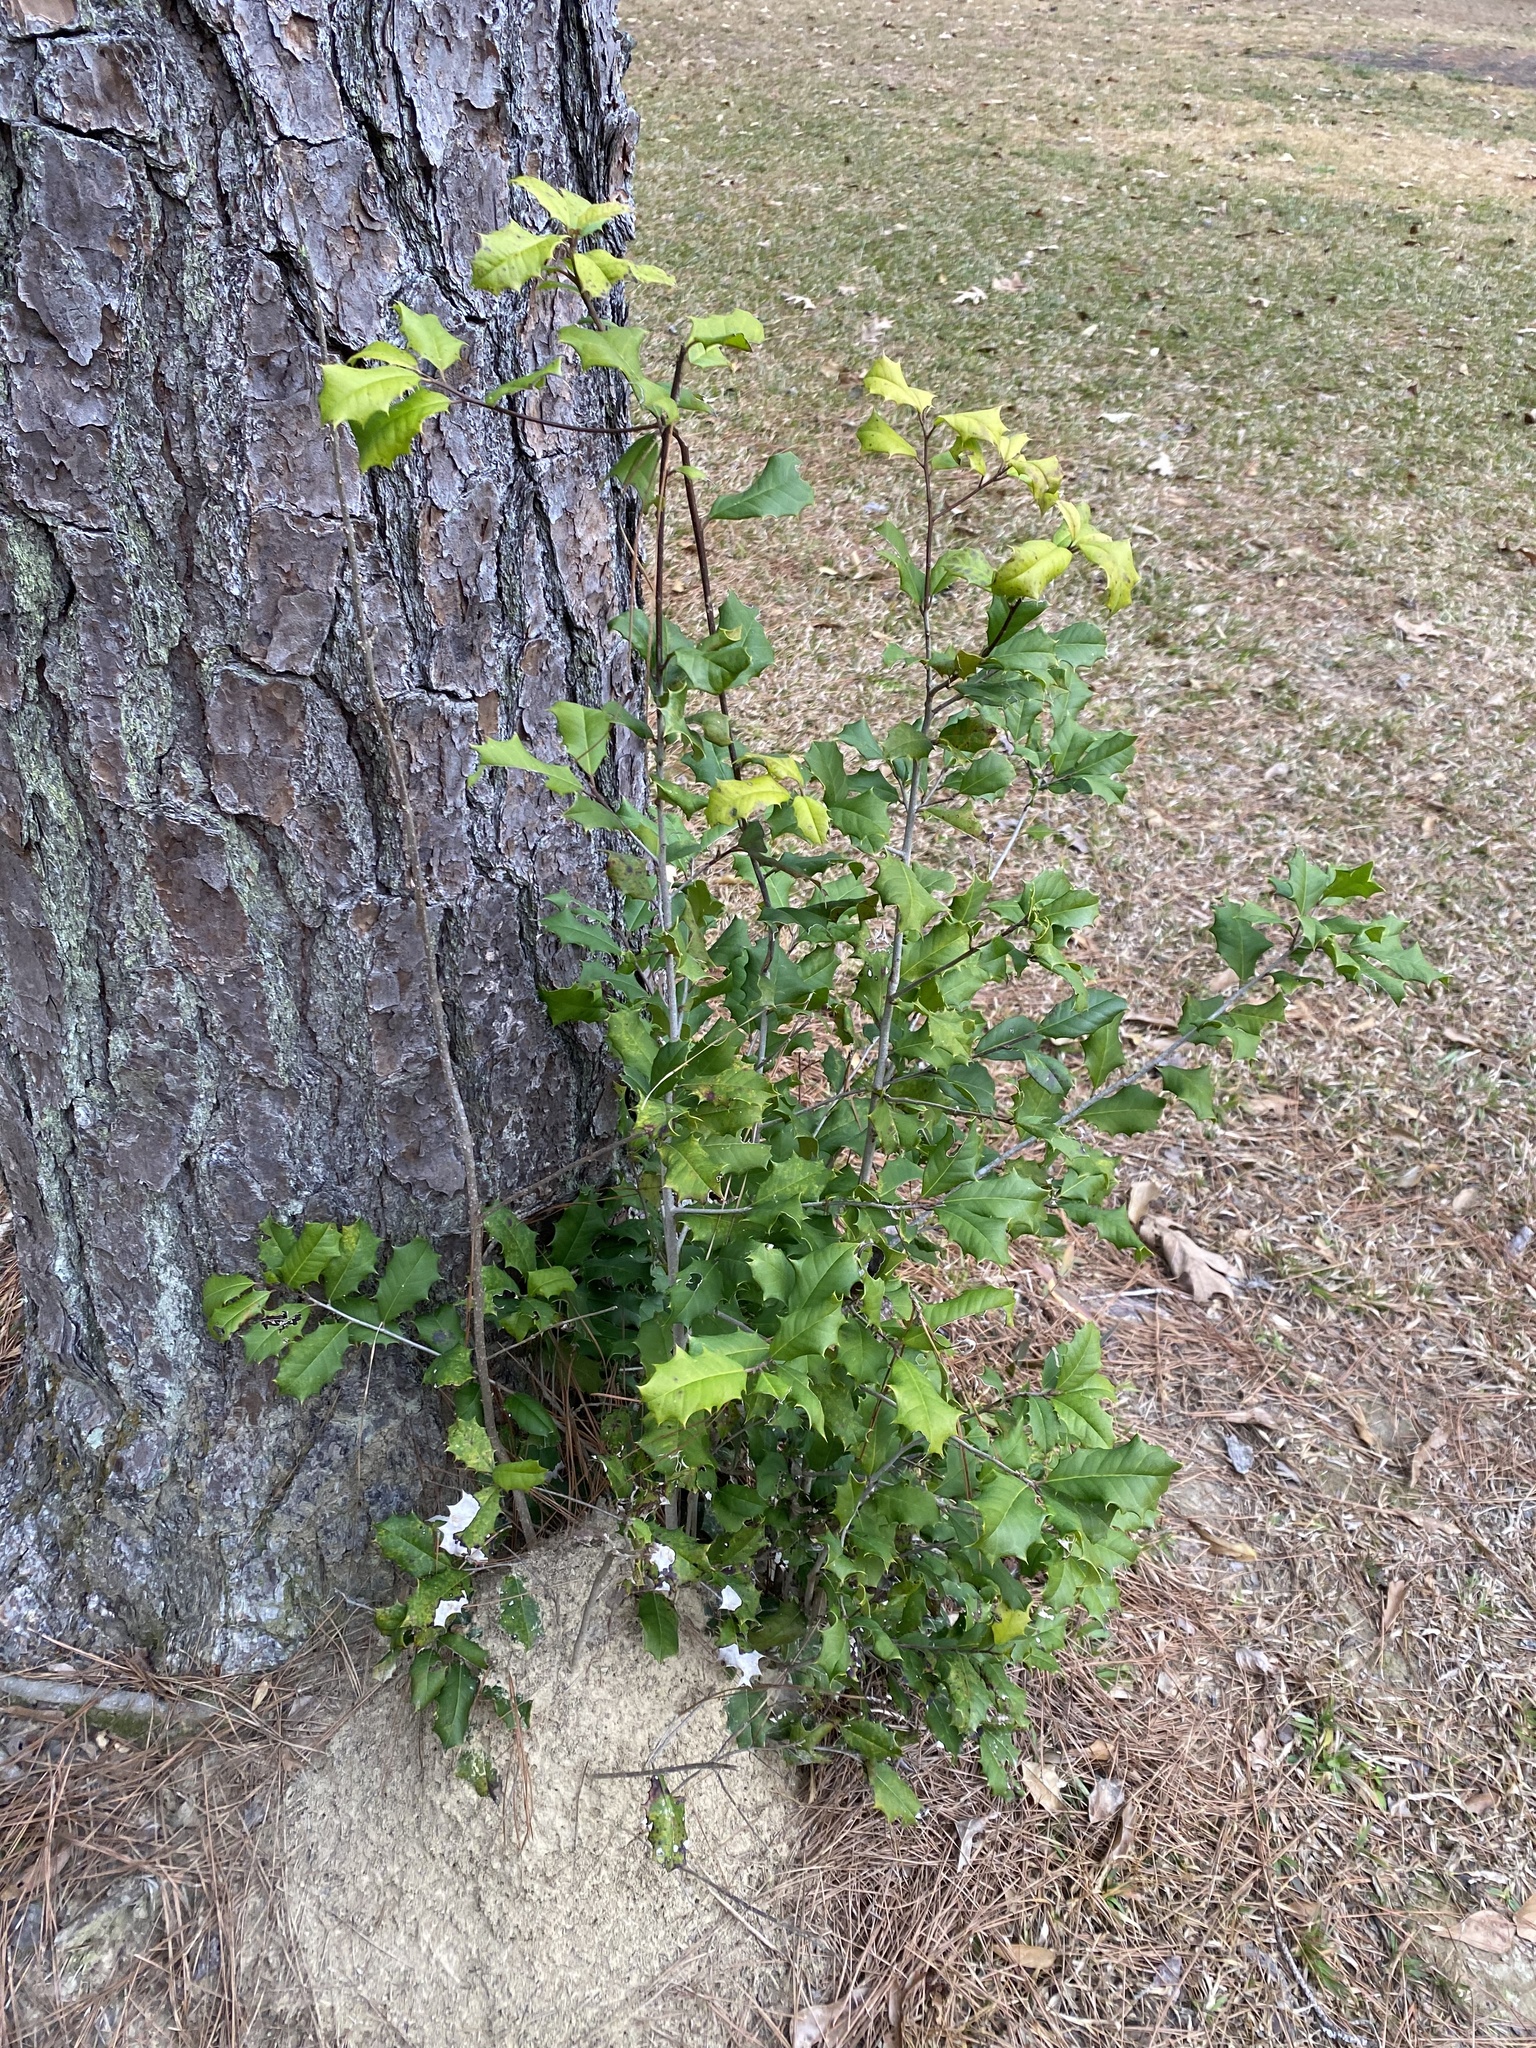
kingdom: Plantae
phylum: Tracheophyta
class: Magnoliopsida
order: Aquifoliales
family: Aquifoliaceae
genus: Ilex
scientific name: Ilex opaca
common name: American holly
